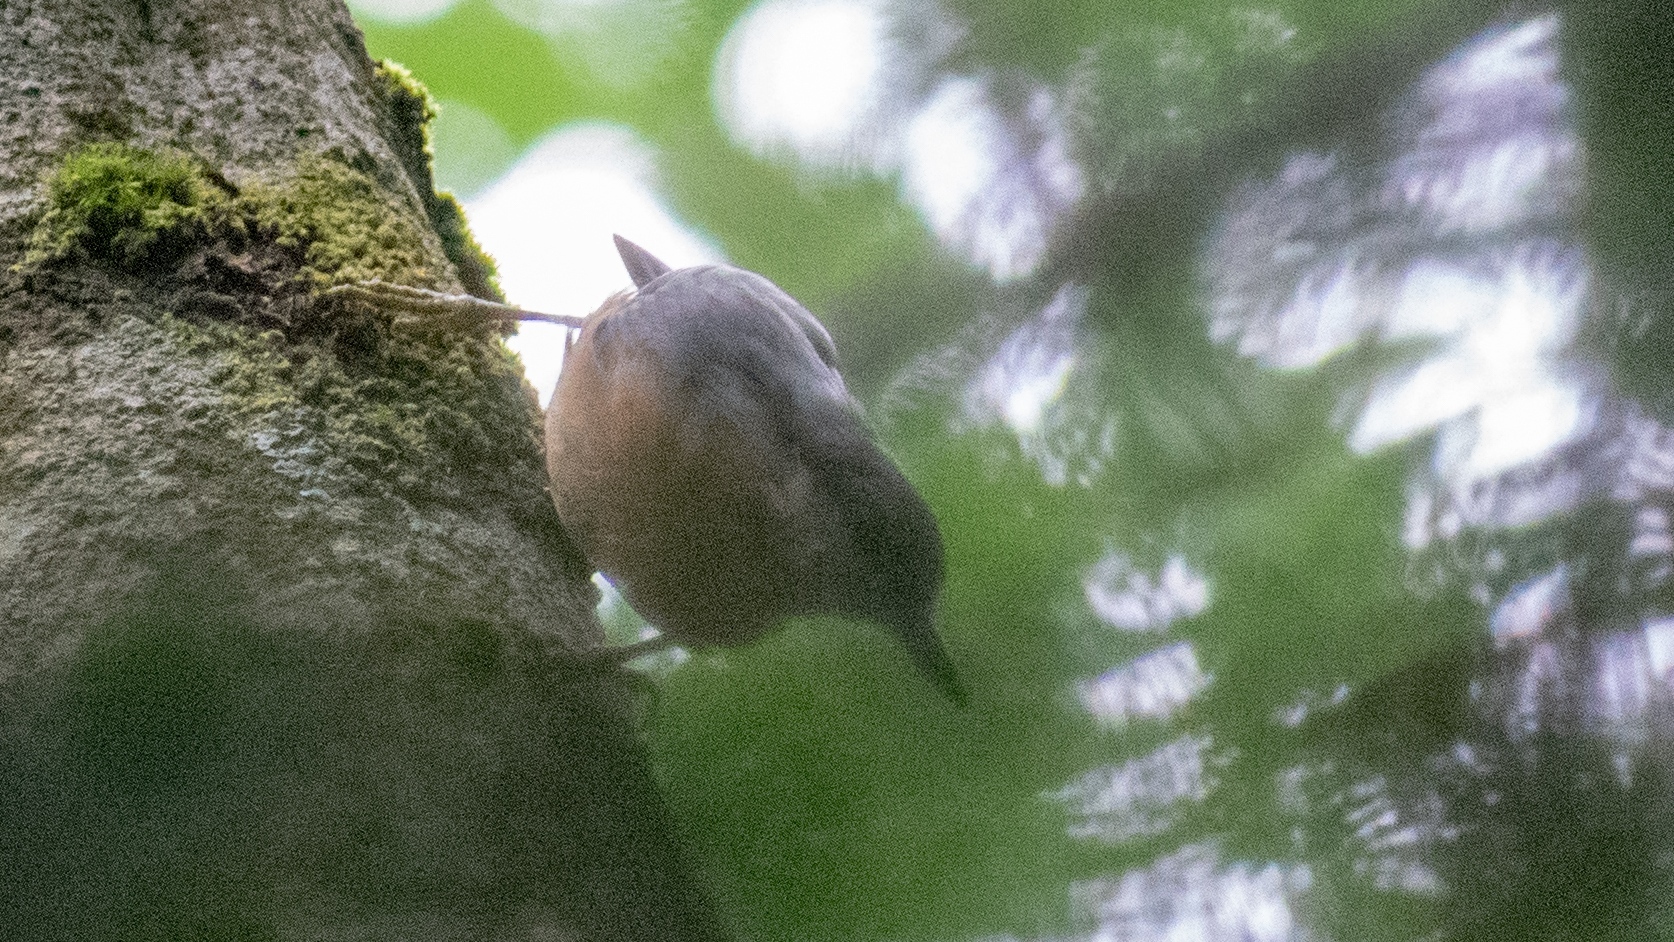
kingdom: Animalia
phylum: Chordata
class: Aves
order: Passeriformes
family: Sittidae
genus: Sitta
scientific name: Sitta europaea
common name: Eurasian nuthatch
